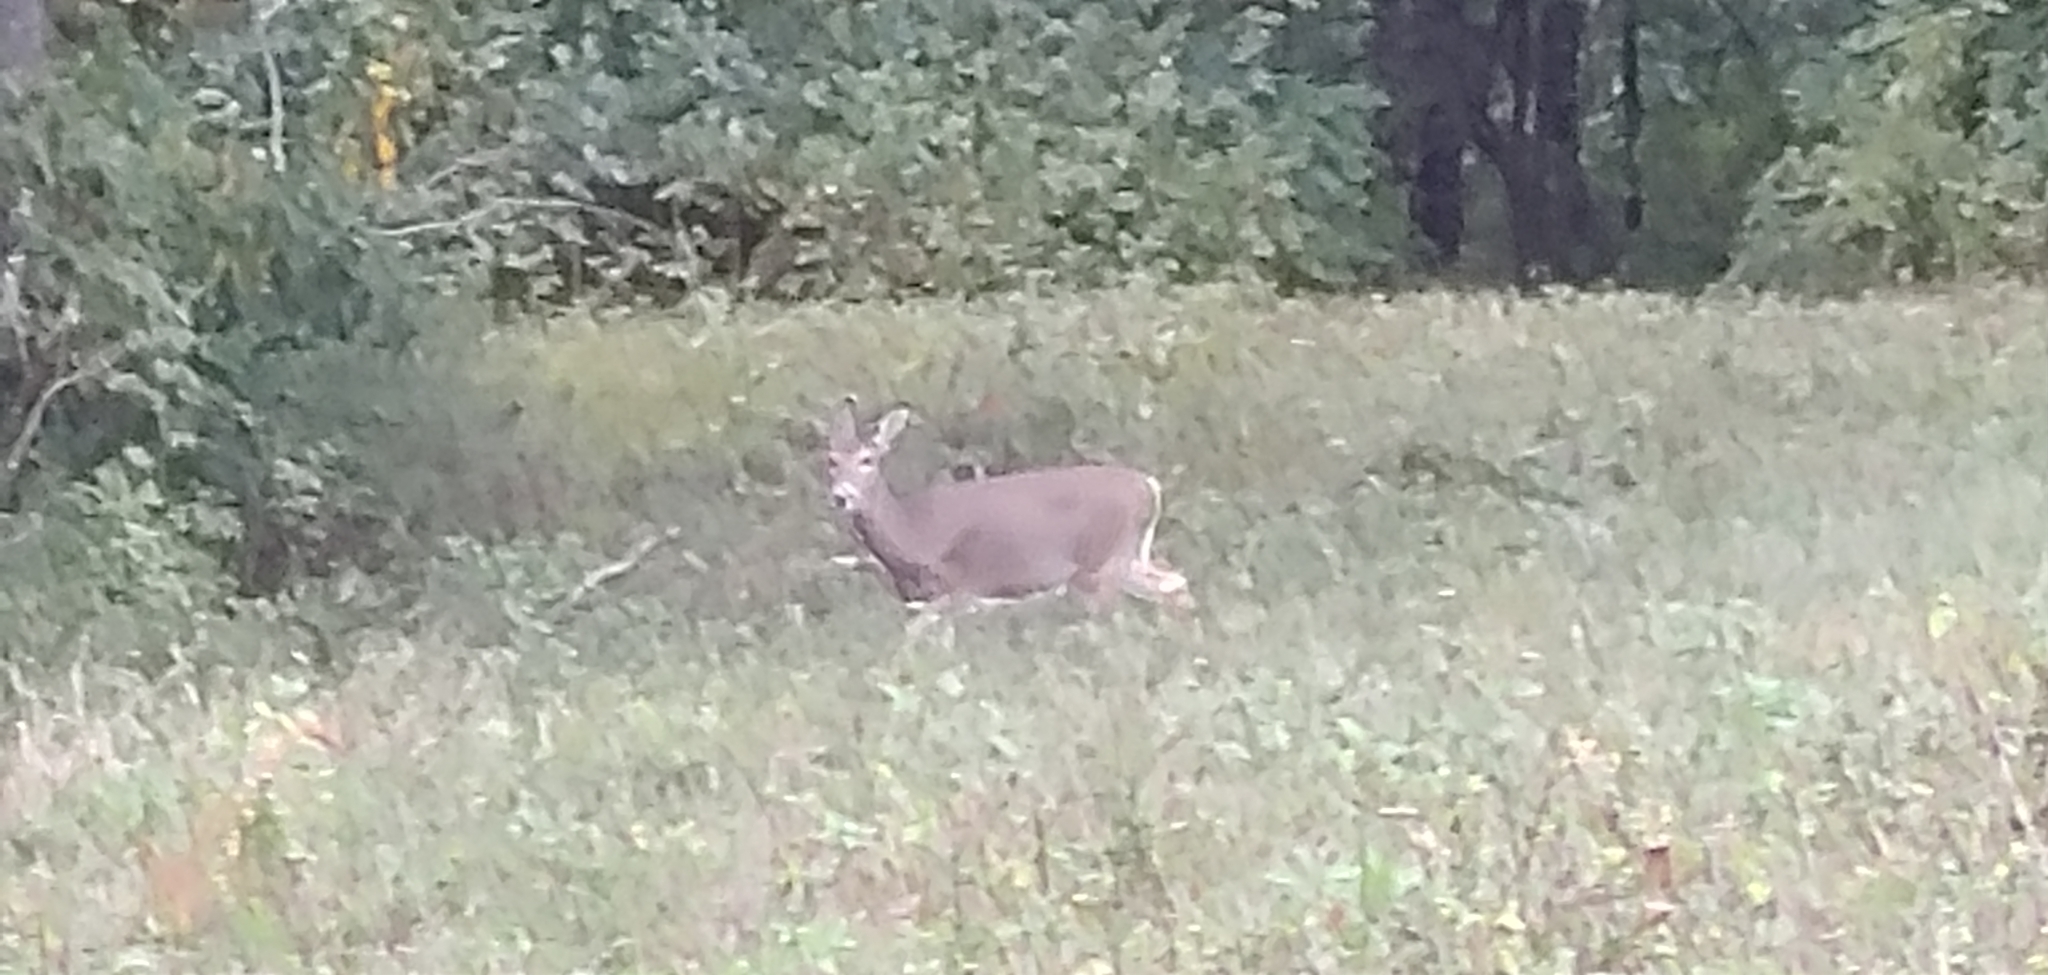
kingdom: Animalia
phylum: Chordata
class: Mammalia
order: Artiodactyla
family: Cervidae
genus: Odocoileus
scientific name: Odocoileus virginianus
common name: White-tailed deer
